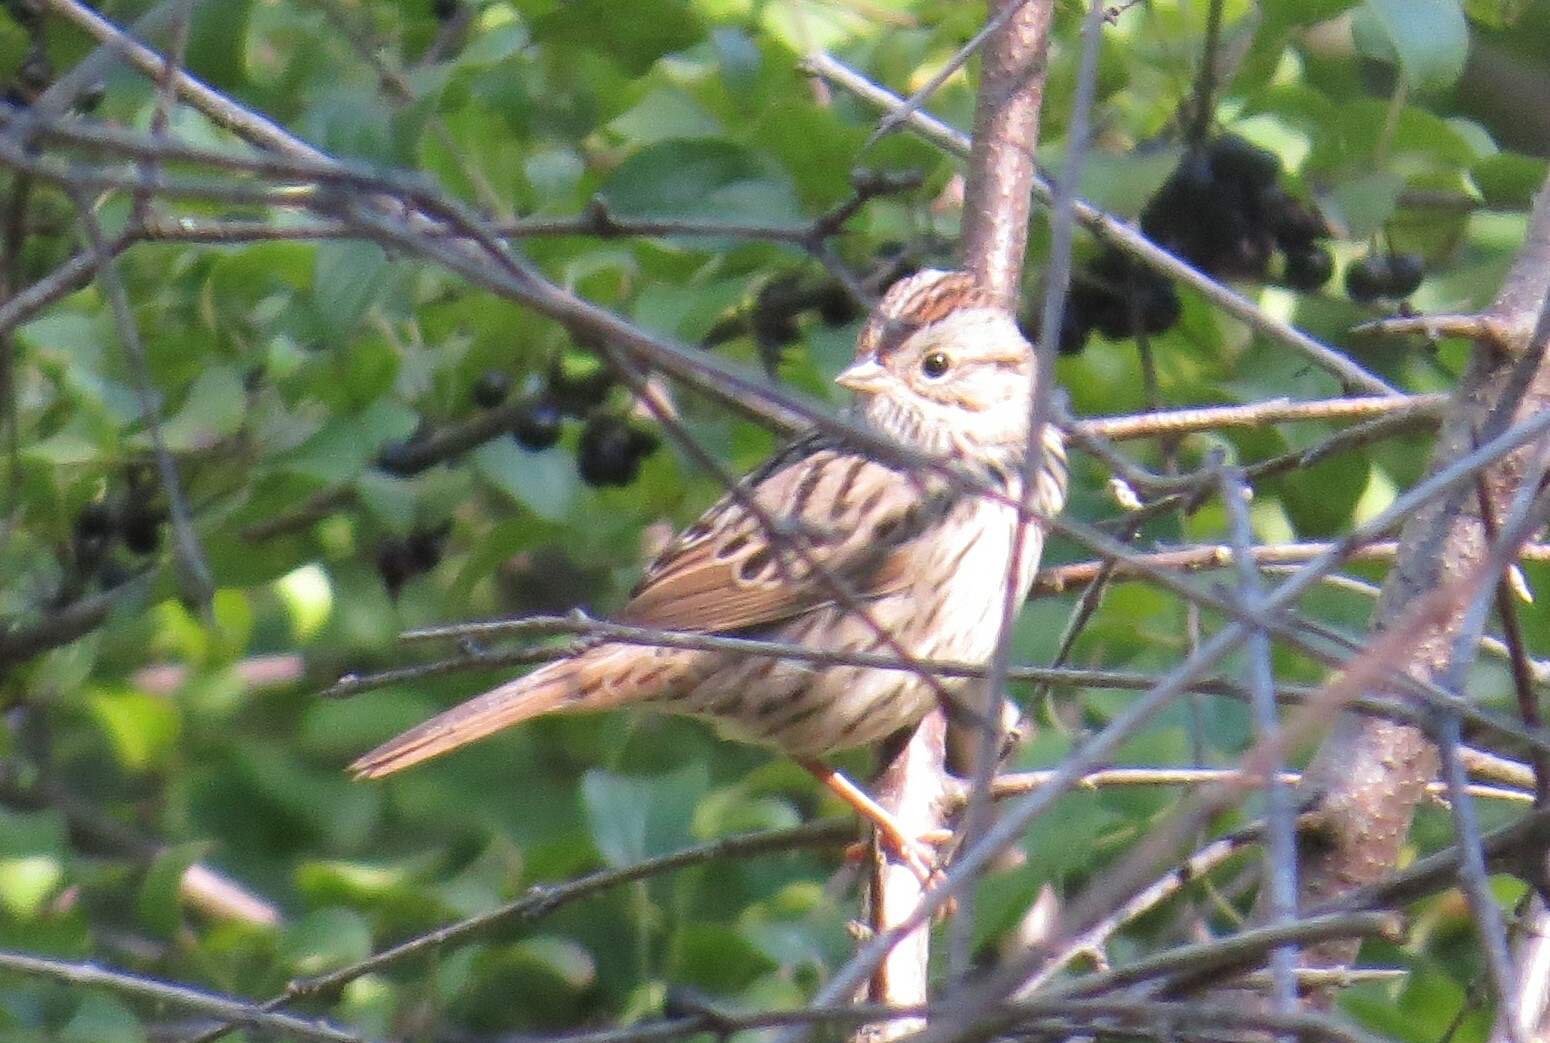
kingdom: Animalia
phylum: Chordata
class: Aves
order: Passeriformes
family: Passerellidae
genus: Melospiza
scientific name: Melospiza lincolnii
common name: Lincoln's sparrow
